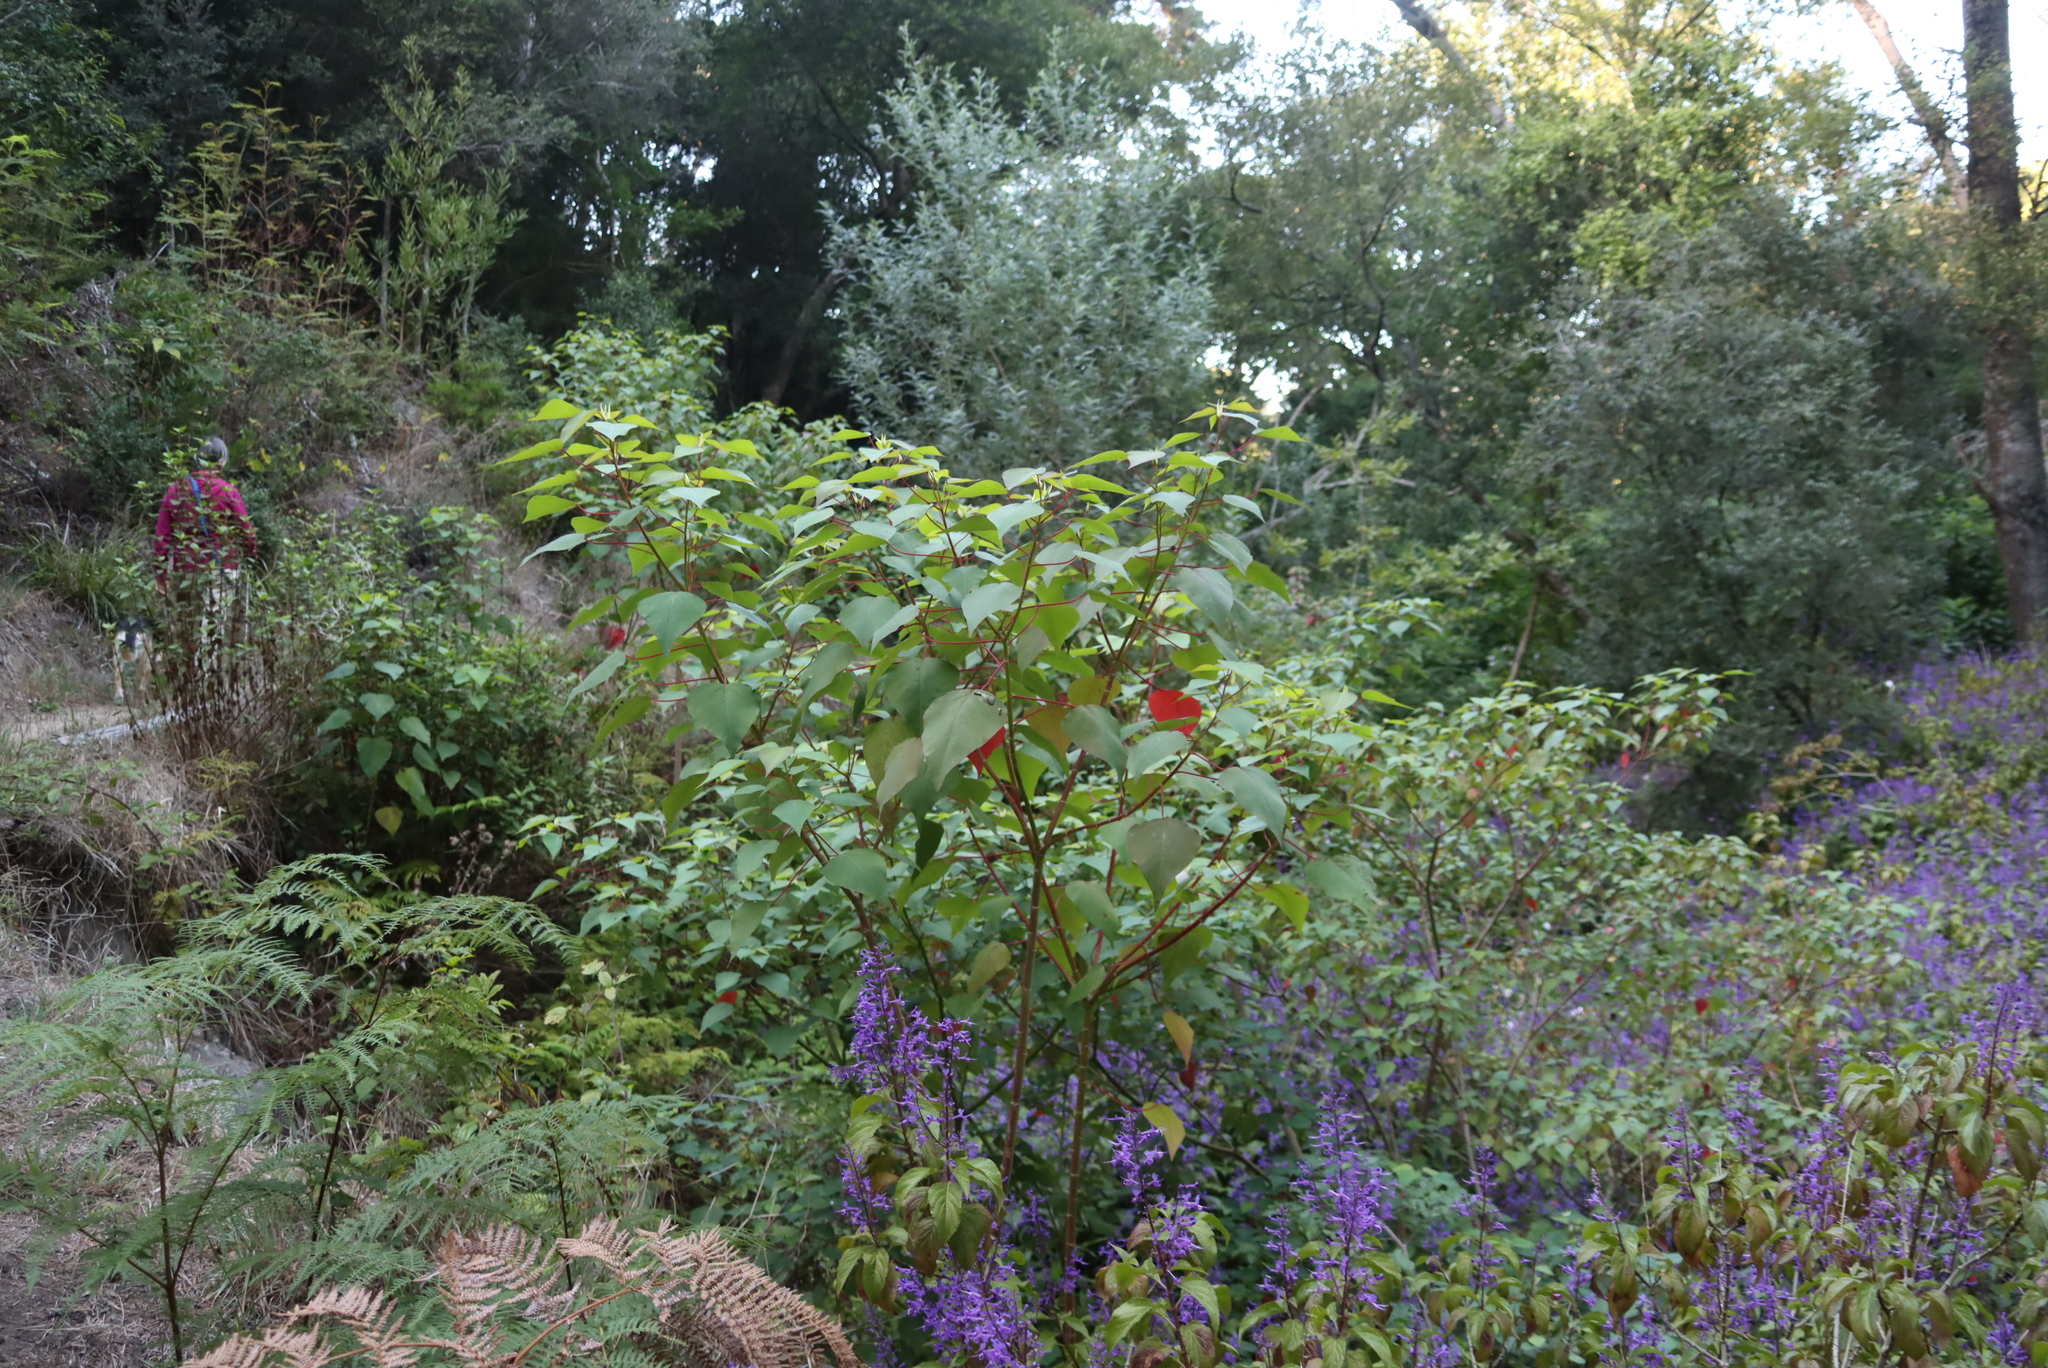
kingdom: Plantae
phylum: Tracheophyta
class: Magnoliopsida
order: Malpighiales
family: Euphorbiaceae
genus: Homalanthus
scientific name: Homalanthus populifolius
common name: Queensland poplar
